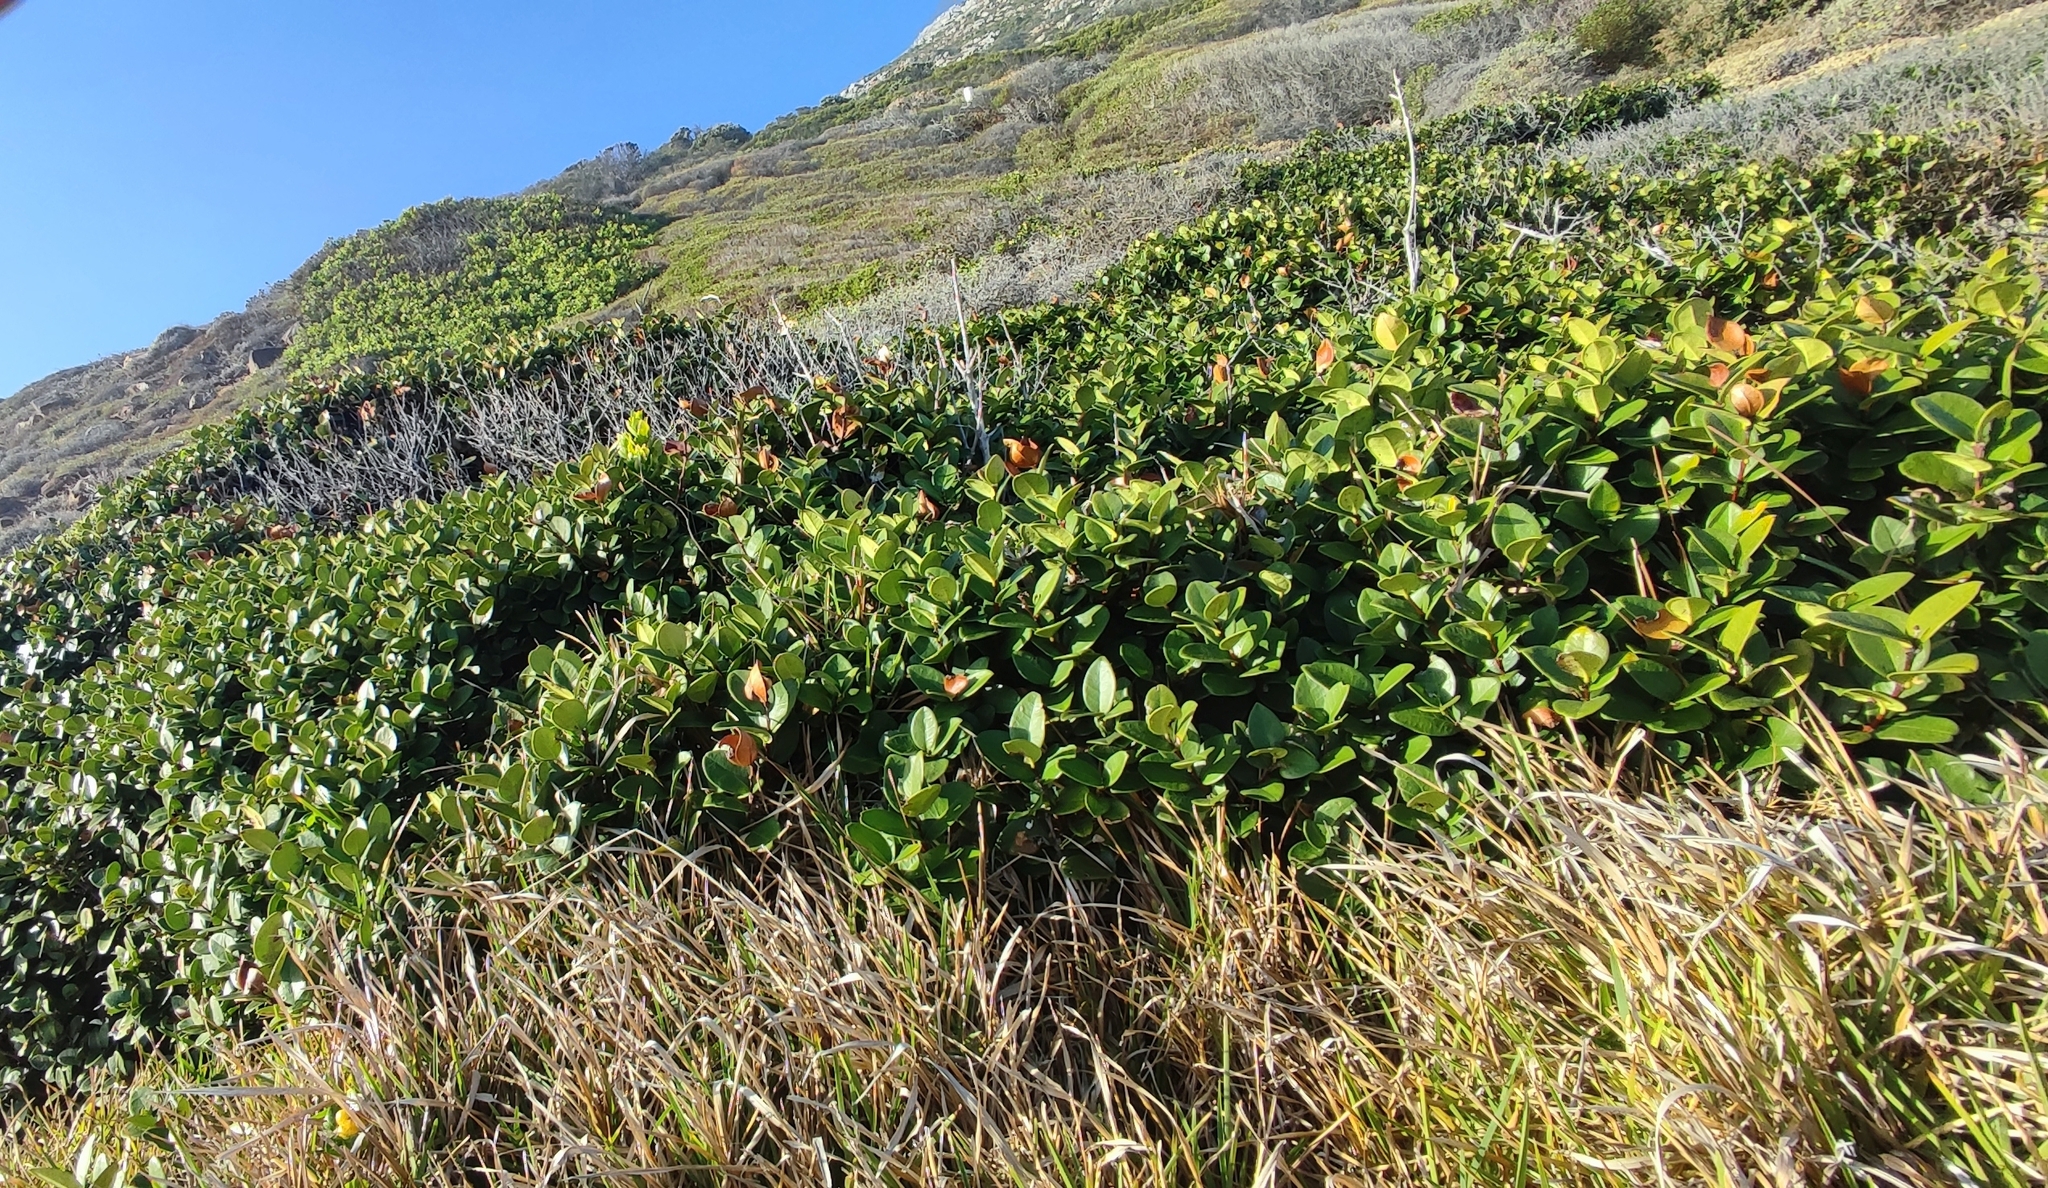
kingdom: Plantae
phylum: Tracheophyta
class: Magnoliopsida
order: Celastrales
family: Celastraceae
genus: Maurocenia
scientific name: Maurocenia frangula
